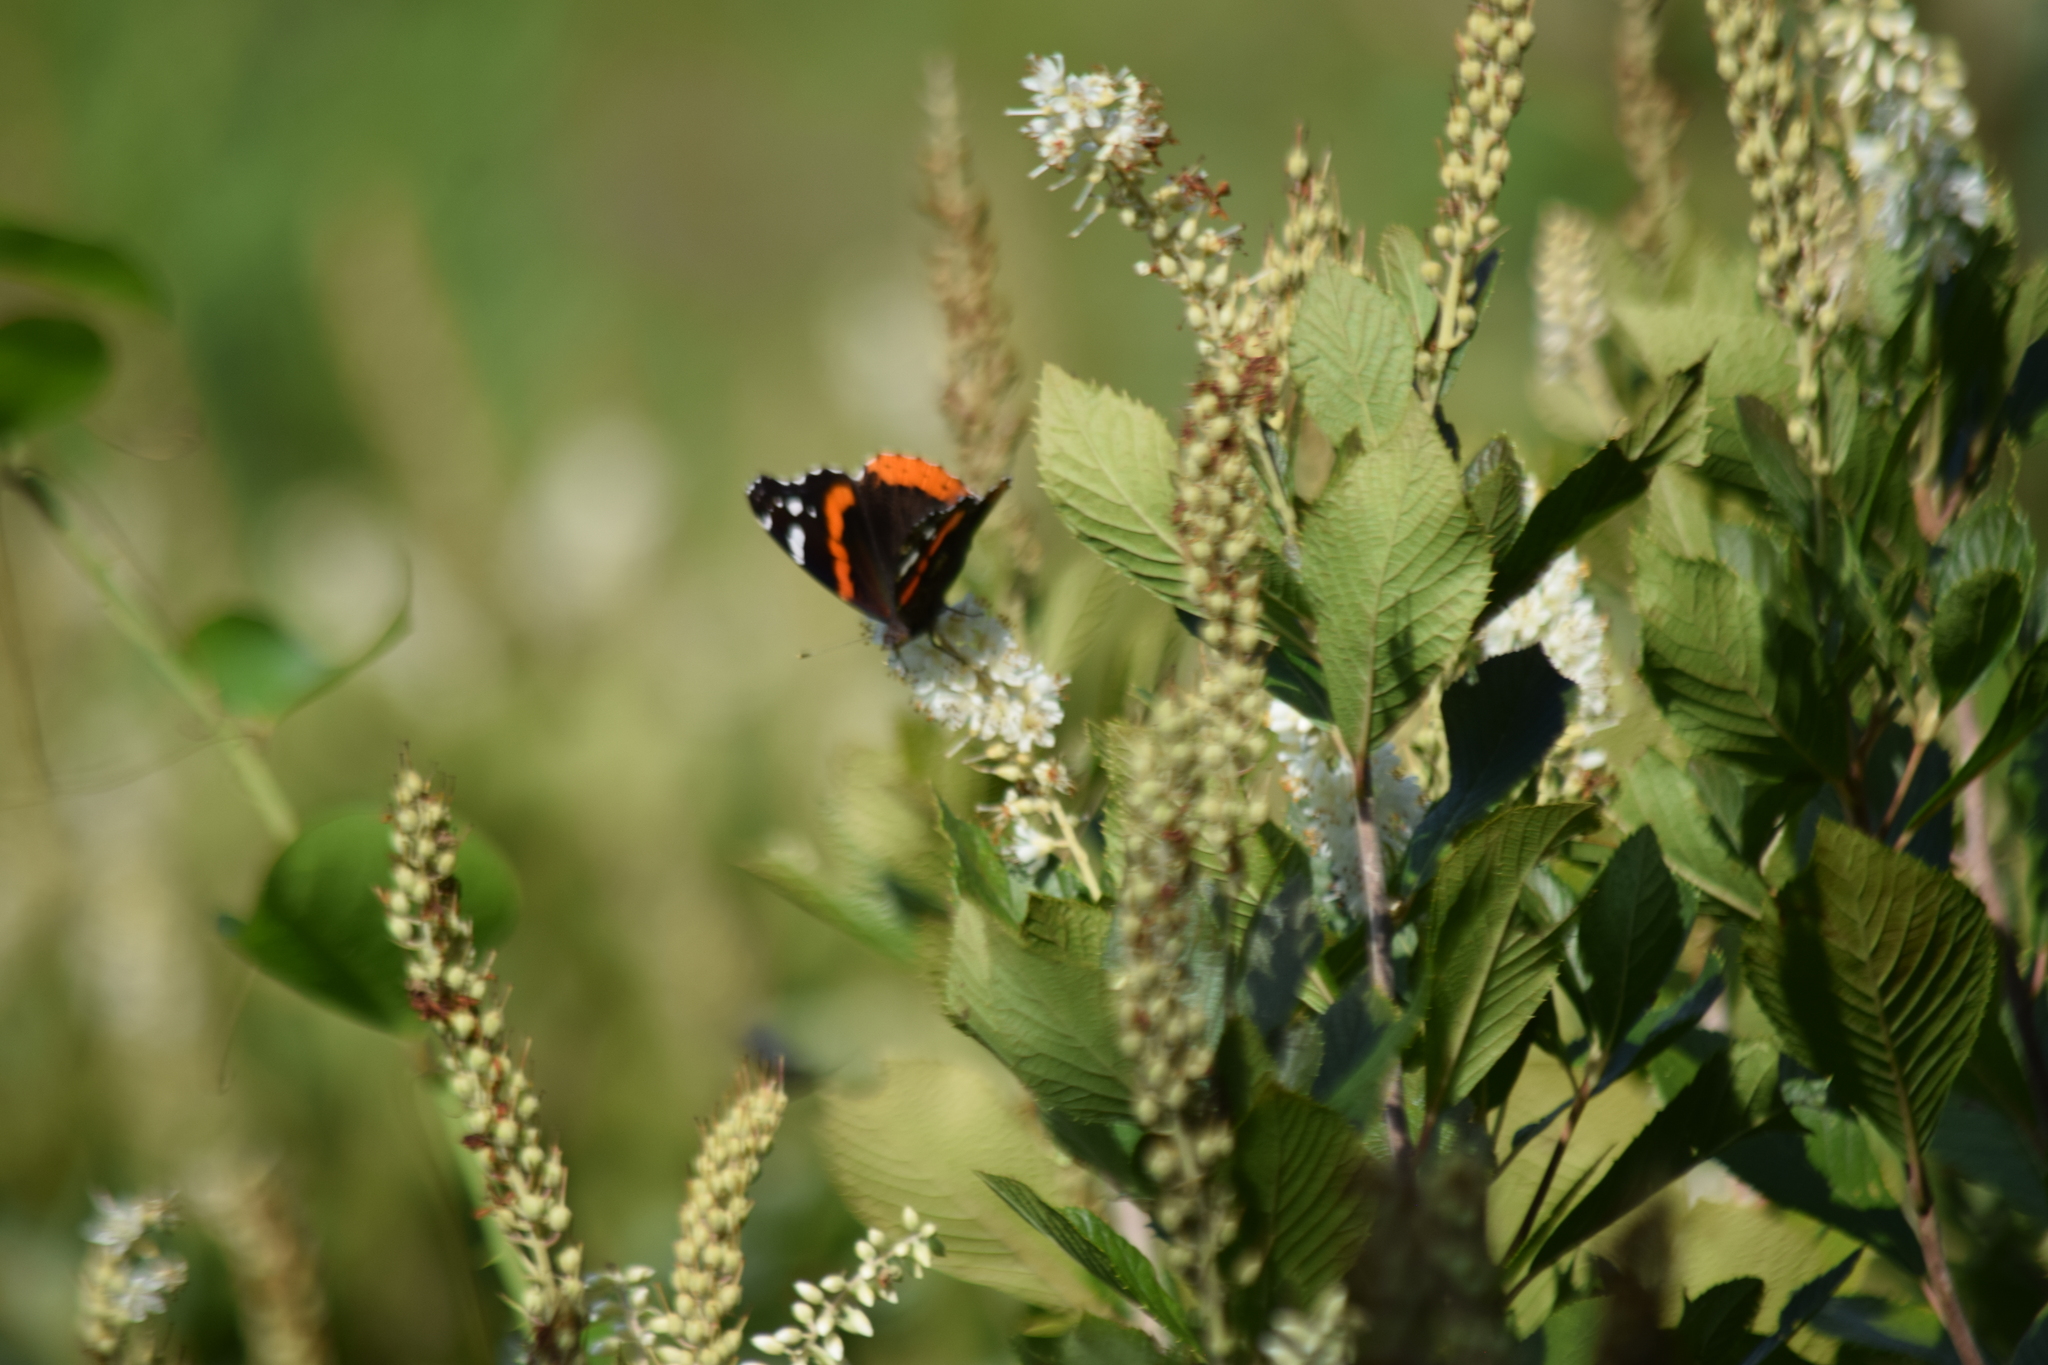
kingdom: Animalia
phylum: Arthropoda
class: Insecta
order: Lepidoptera
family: Nymphalidae
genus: Vanessa
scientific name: Vanessa atalanta
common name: Red admiral
